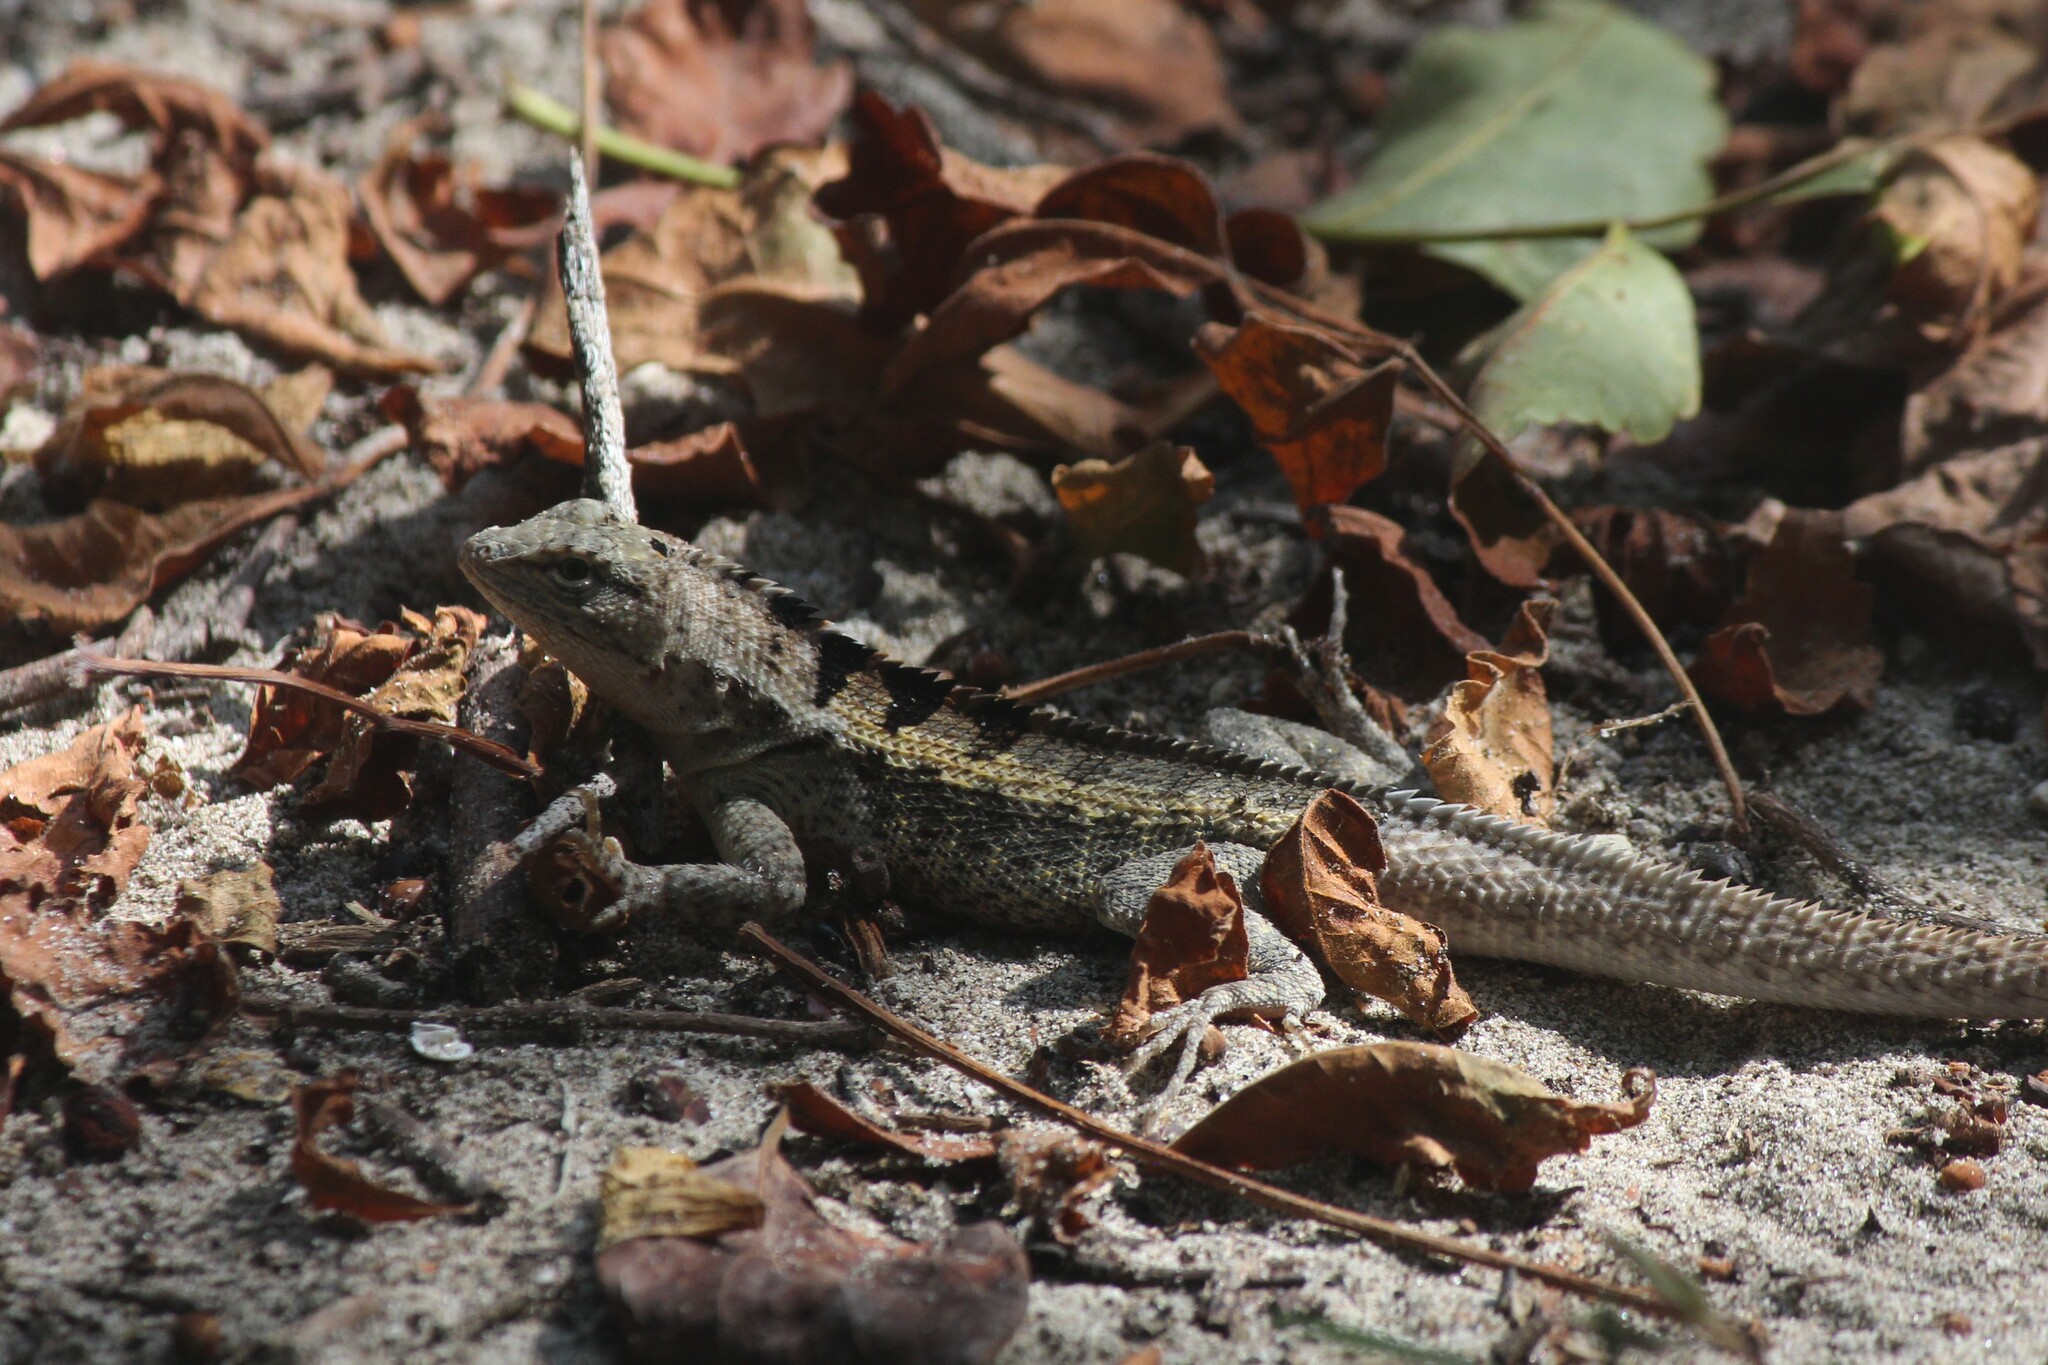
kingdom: Animalia
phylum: Chordata
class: Squamata
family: Tropiduridae
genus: Microlophus
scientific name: Microlophus occipitalis
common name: Knobbed pacific iguana
